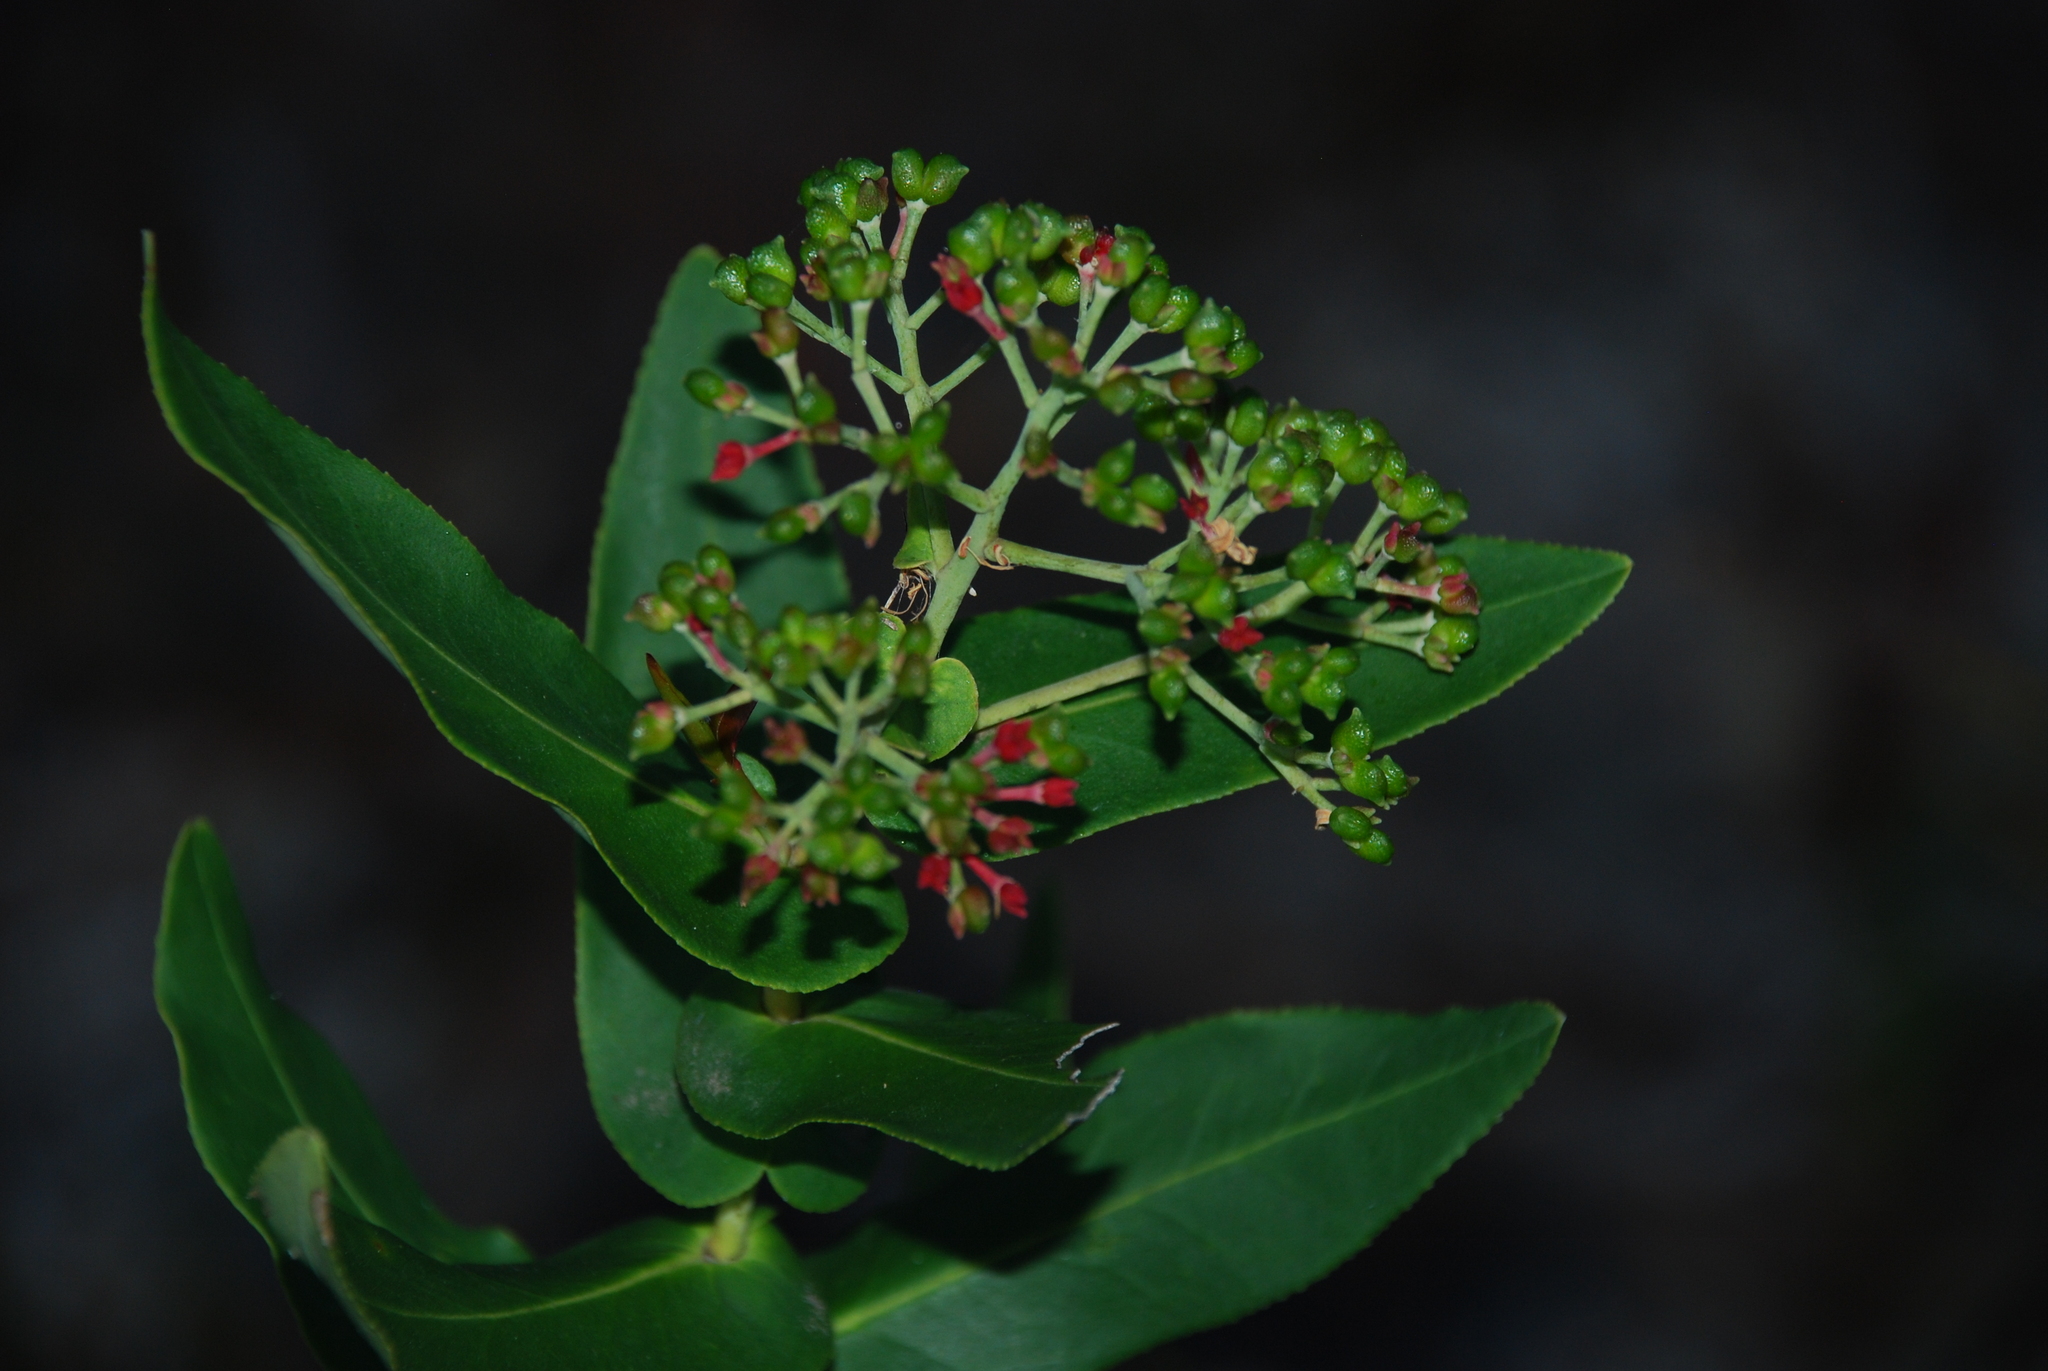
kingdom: Plantae
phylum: Tracheophyta
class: Magnoliopsida
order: Sapindales
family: Rutaceae
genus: Leionema
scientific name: Leionema ambiens
